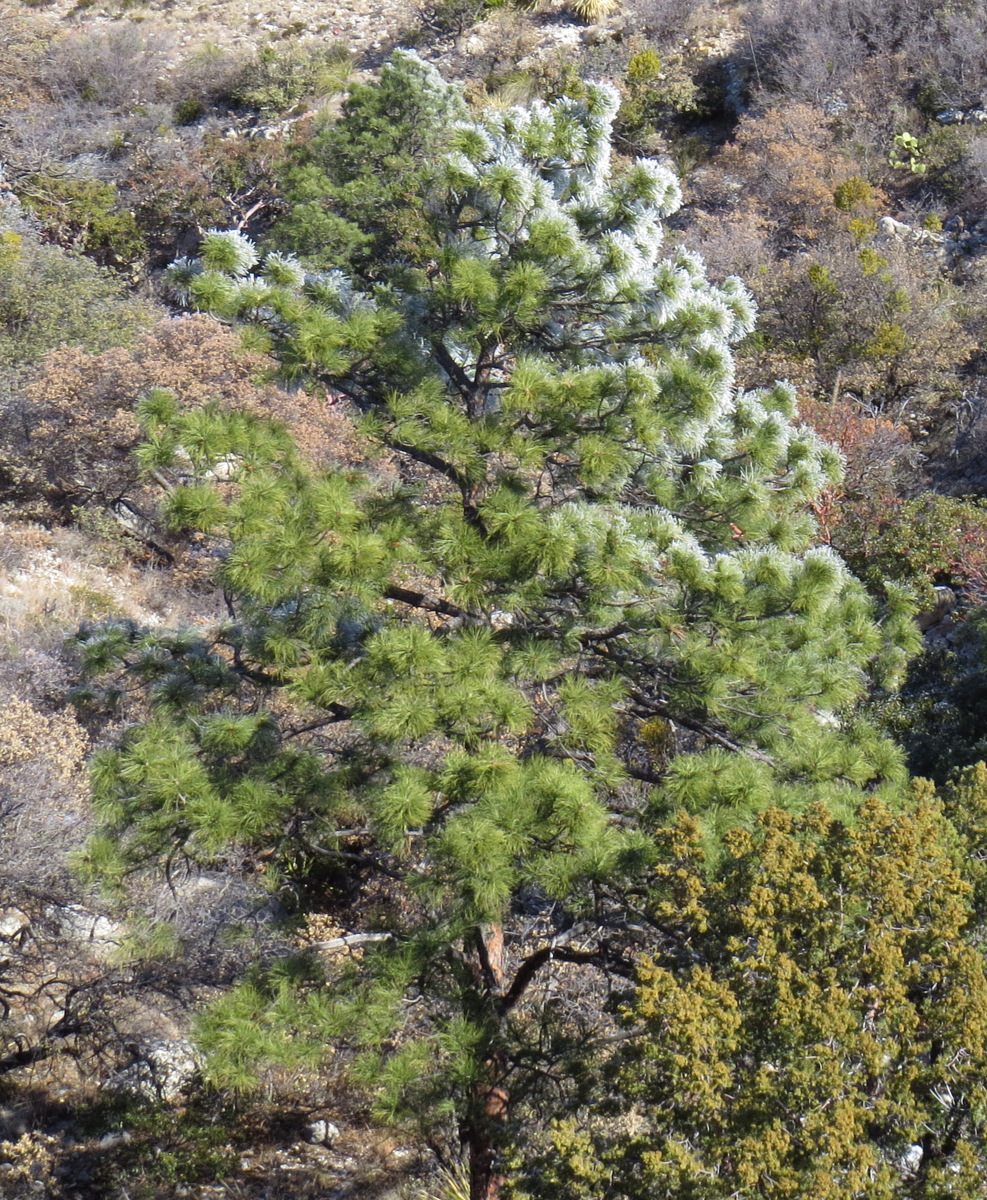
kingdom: Plantae
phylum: Tracheophyta
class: Pinopsida
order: Pinales
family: Pinaceae
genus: Pinus
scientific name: Pinus ponderosa
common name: Western yellow-pine
